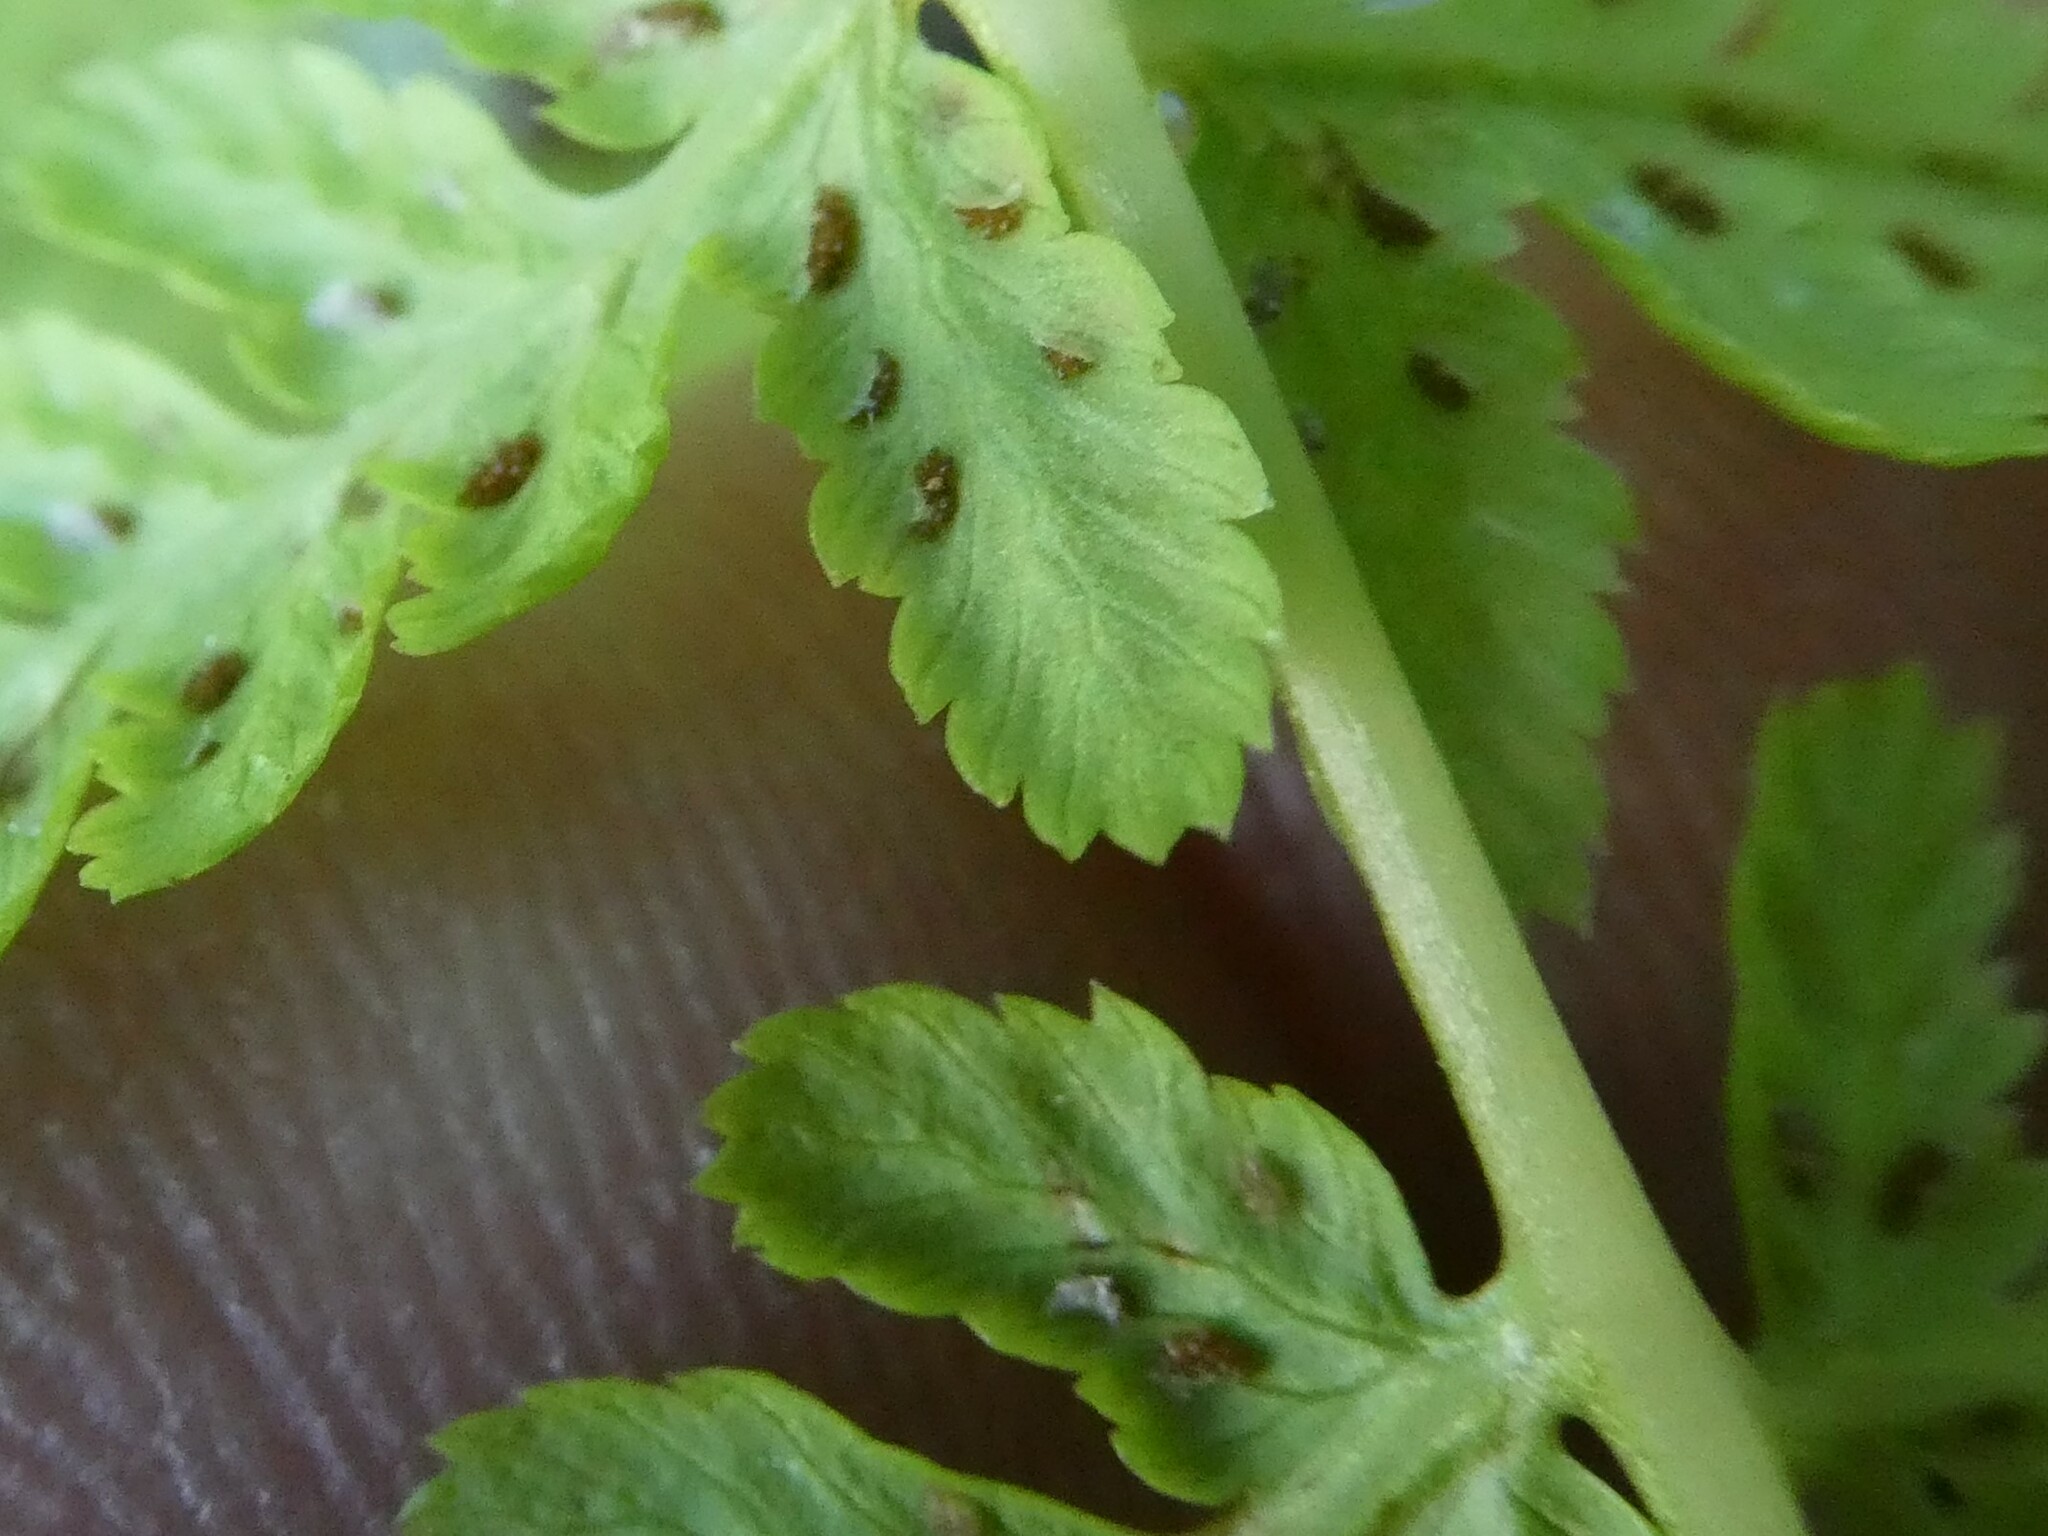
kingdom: Plantae
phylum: Tracheophyta
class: Polypodiopsida
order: Polypodiales
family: Athyriaceae
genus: Athyrium
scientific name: Athyrium angustum
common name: Northern lady fern
